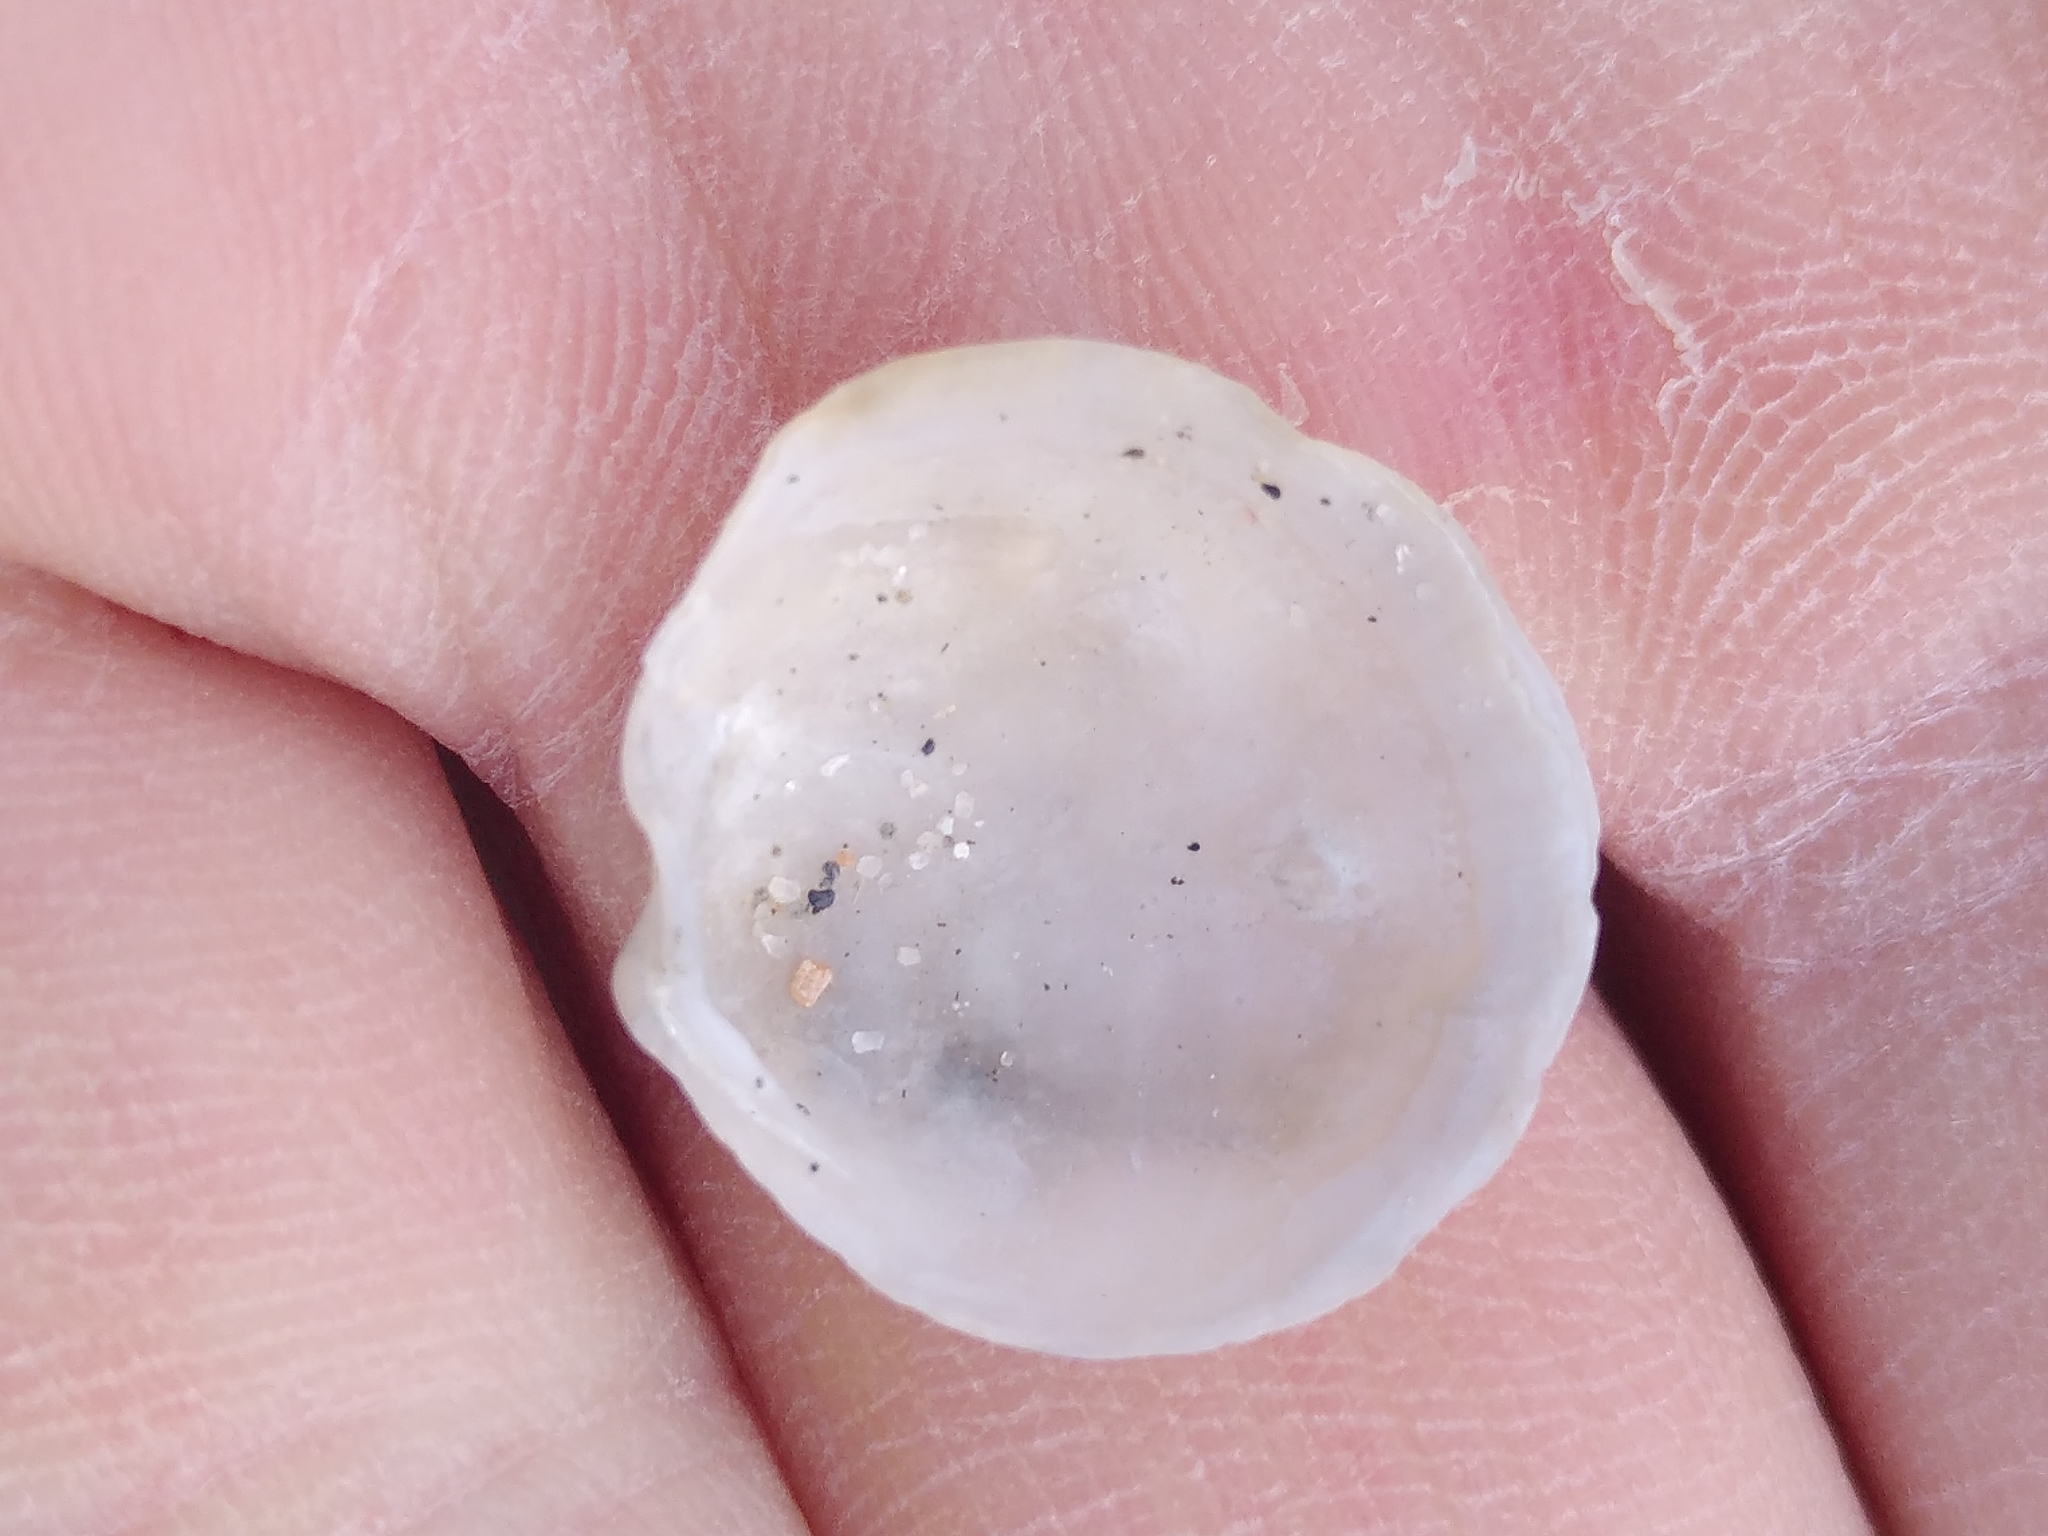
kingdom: Animalia
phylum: Mollusca
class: Bivalvia
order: Lucinida
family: Lucinidae
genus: Loripes
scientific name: Loripes orbiculatus
